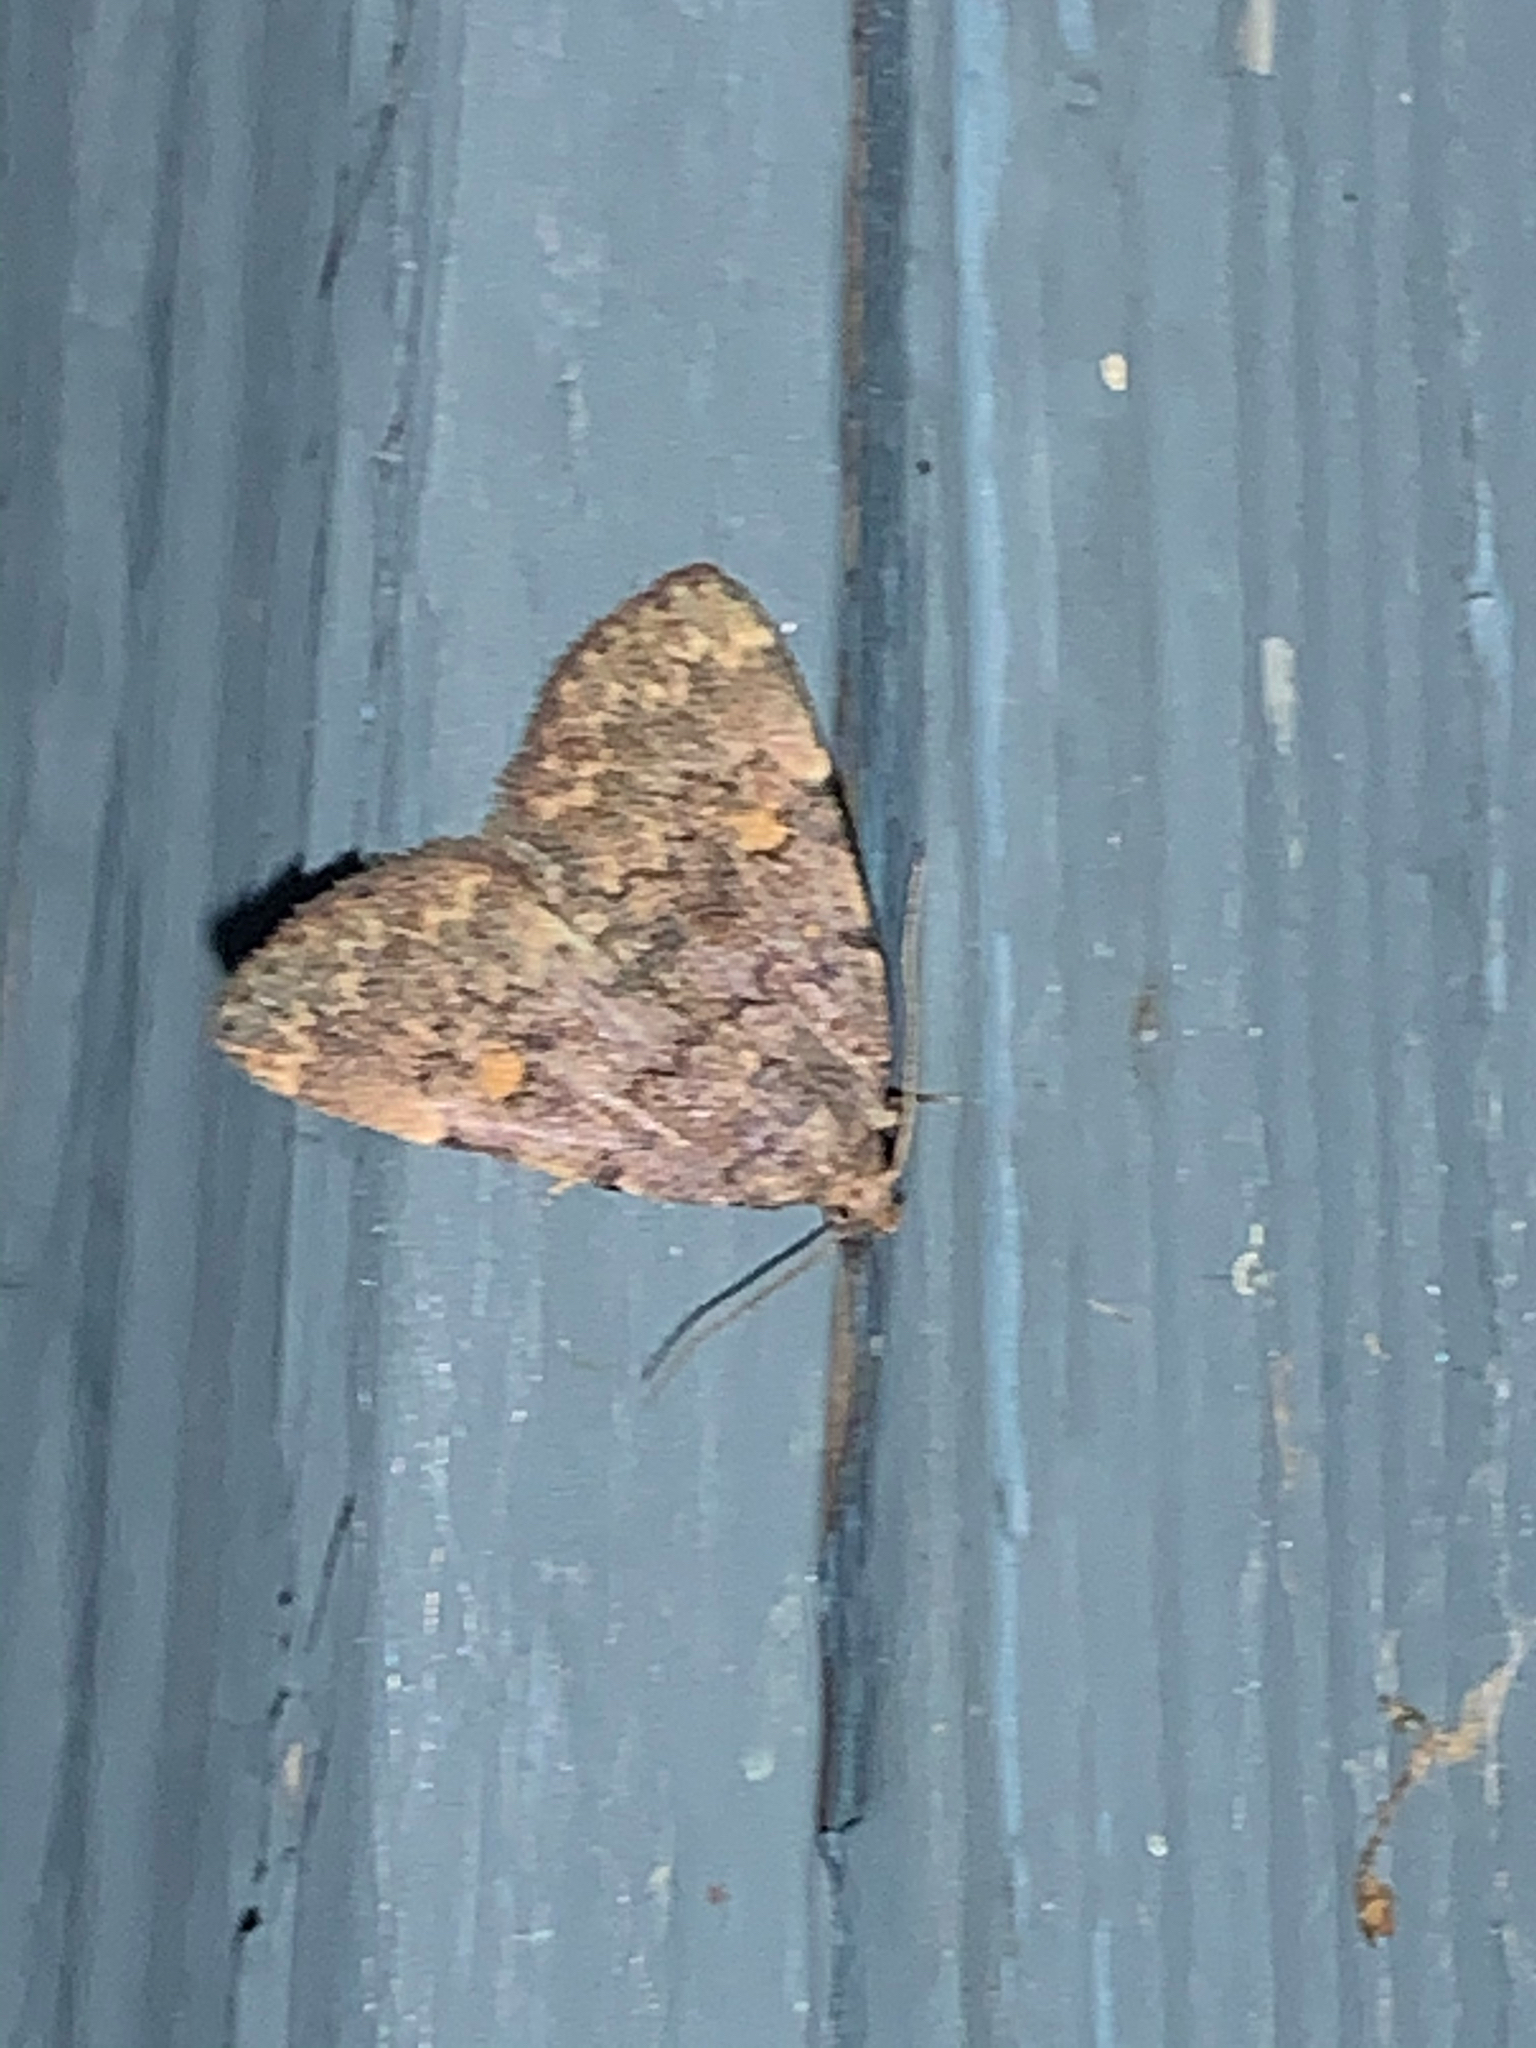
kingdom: Animalia
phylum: Arthropoda
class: Insecta
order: Lepidoptera
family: Erebidae
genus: Idia
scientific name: Idia aemula
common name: Common idia moth
